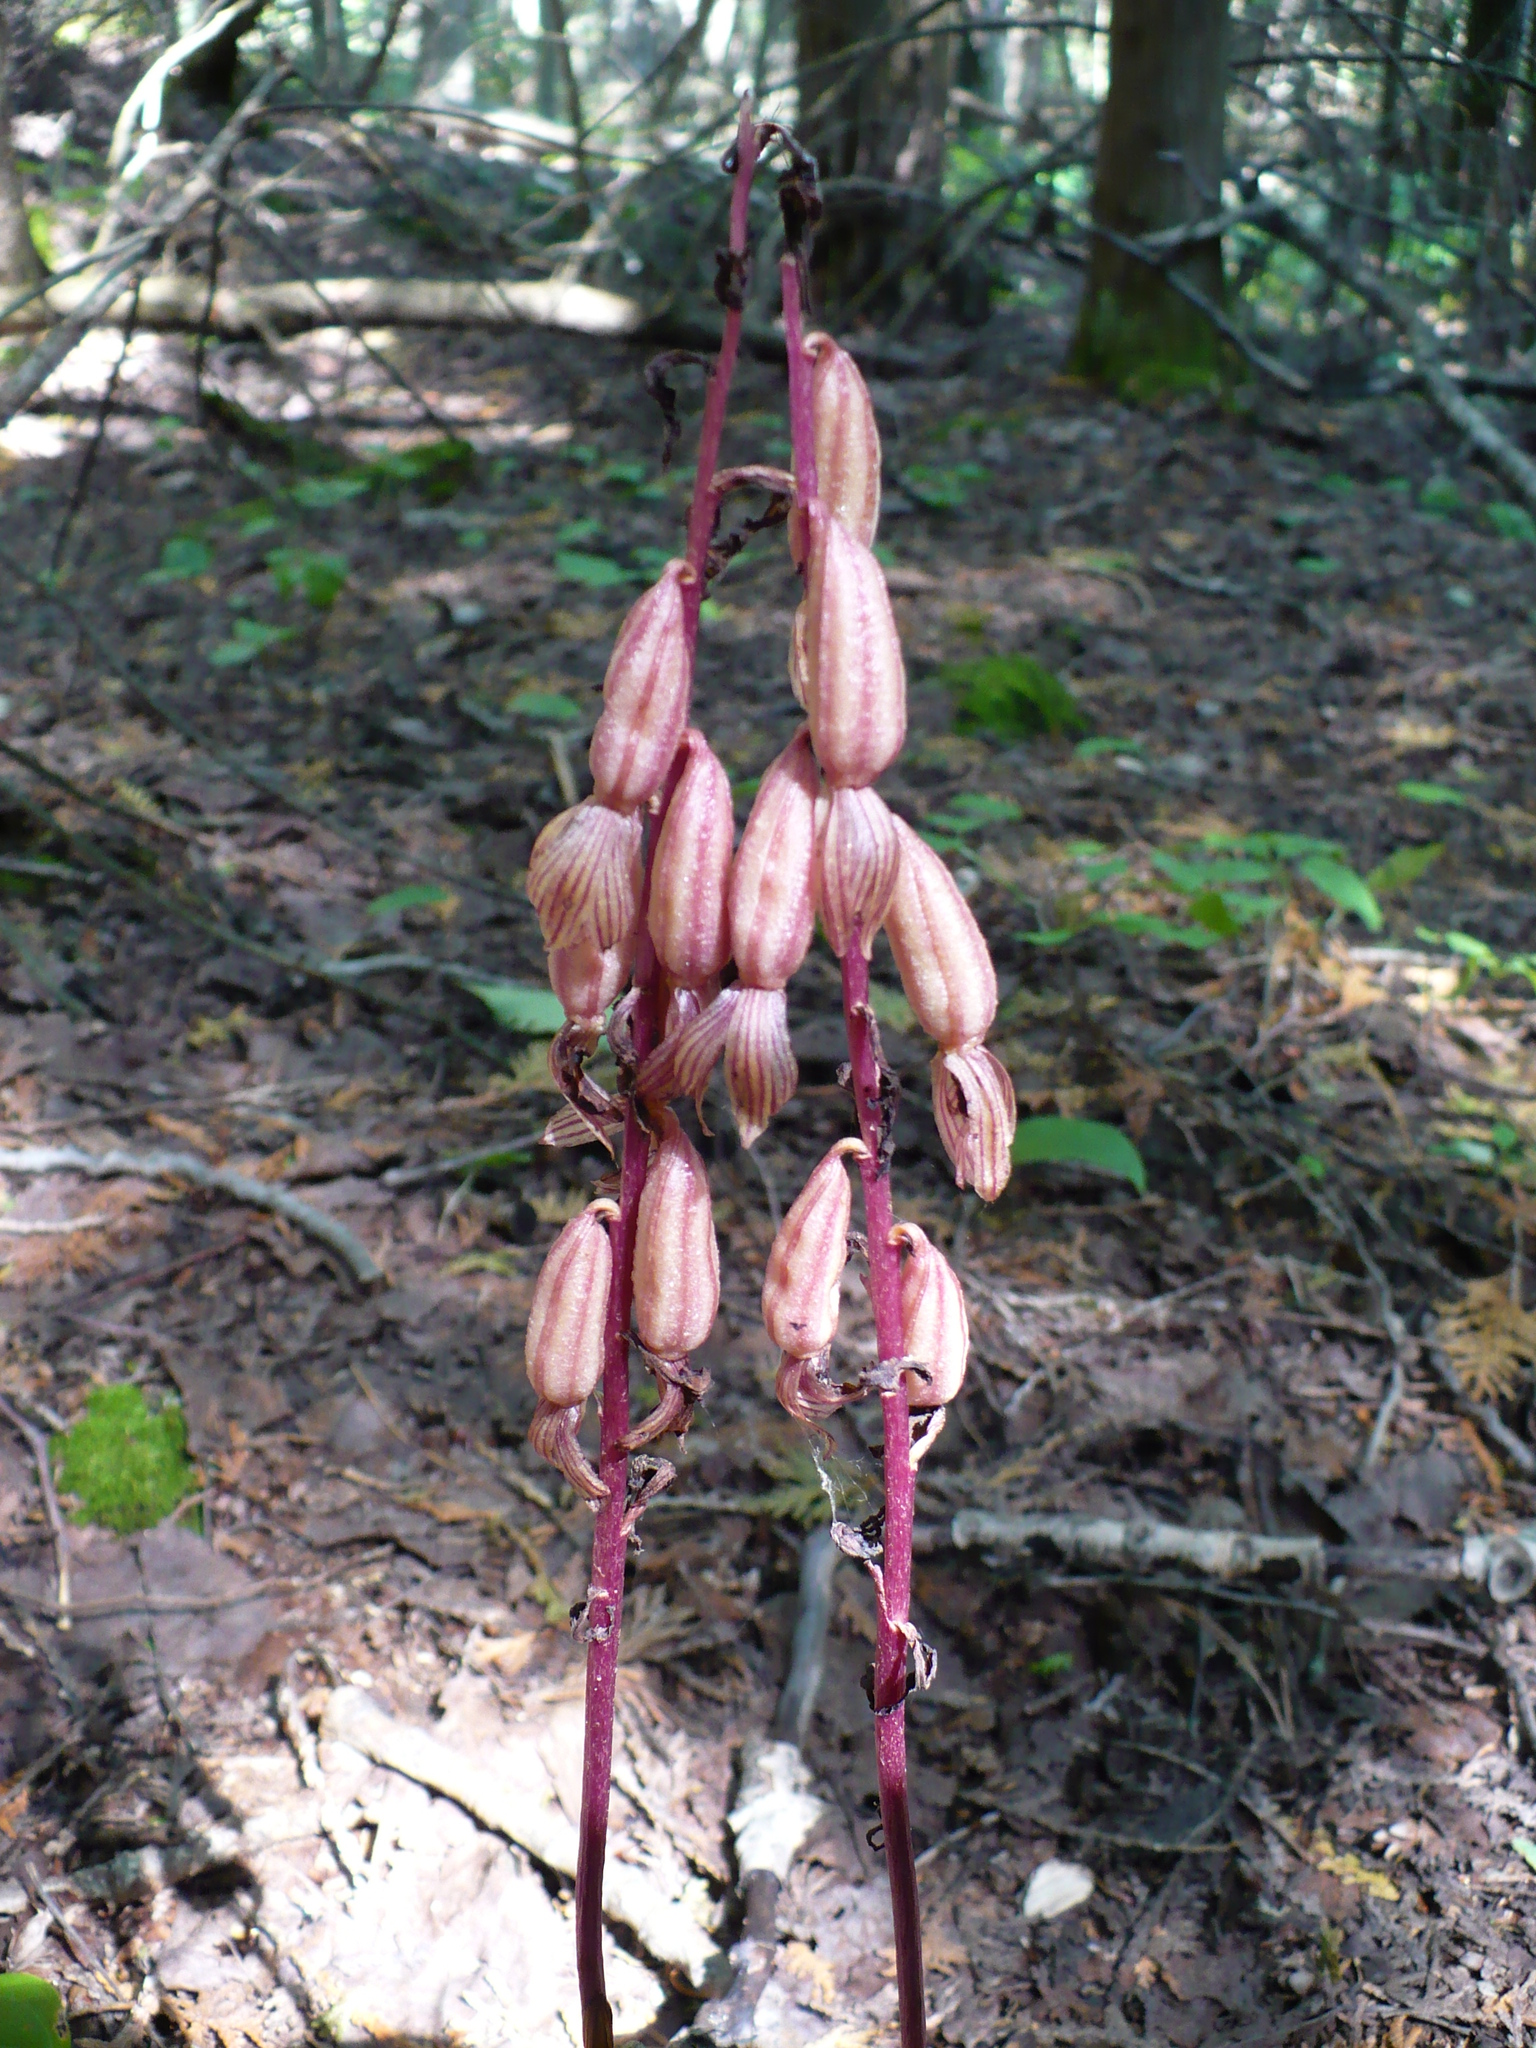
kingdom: Plantae
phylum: Tracheophyta
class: Liliopsida
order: Asparagales
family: Orchidaceae
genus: Corallorhiza
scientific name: Corallorhiza striata
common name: Hooded coralroot
